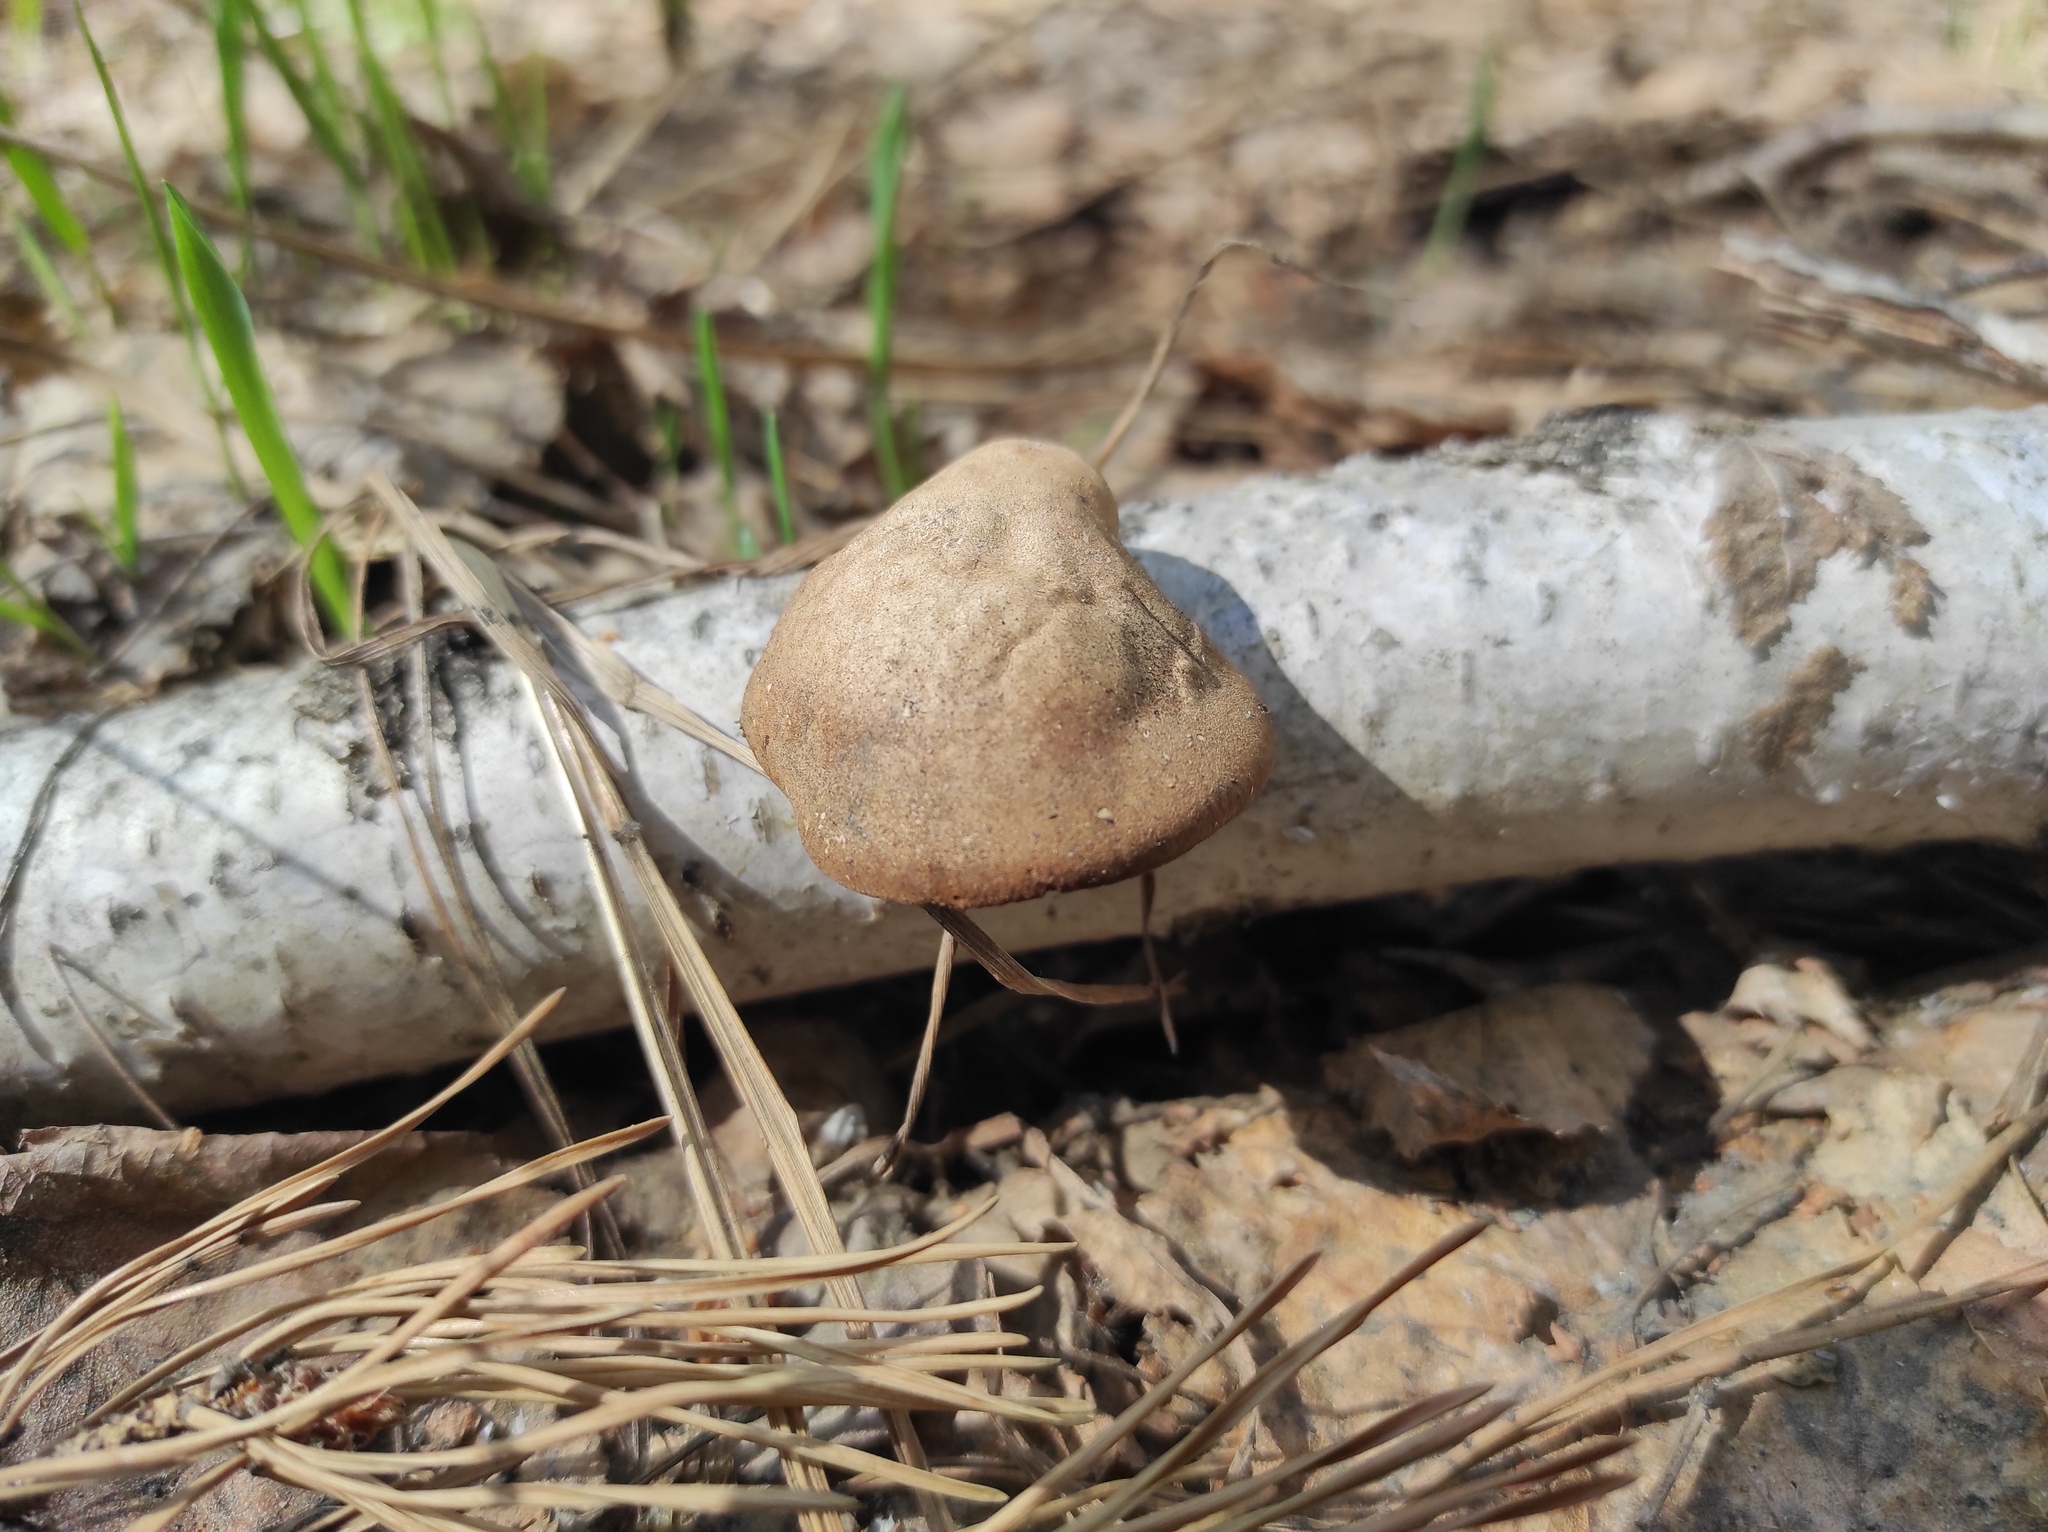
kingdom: Fungi
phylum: Basidiomycota
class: Agaricomycetes
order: Polyporales
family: Fomitopsidaceae
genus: Fomitopsis
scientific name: Fomitopsis betulina
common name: Birch polypore
